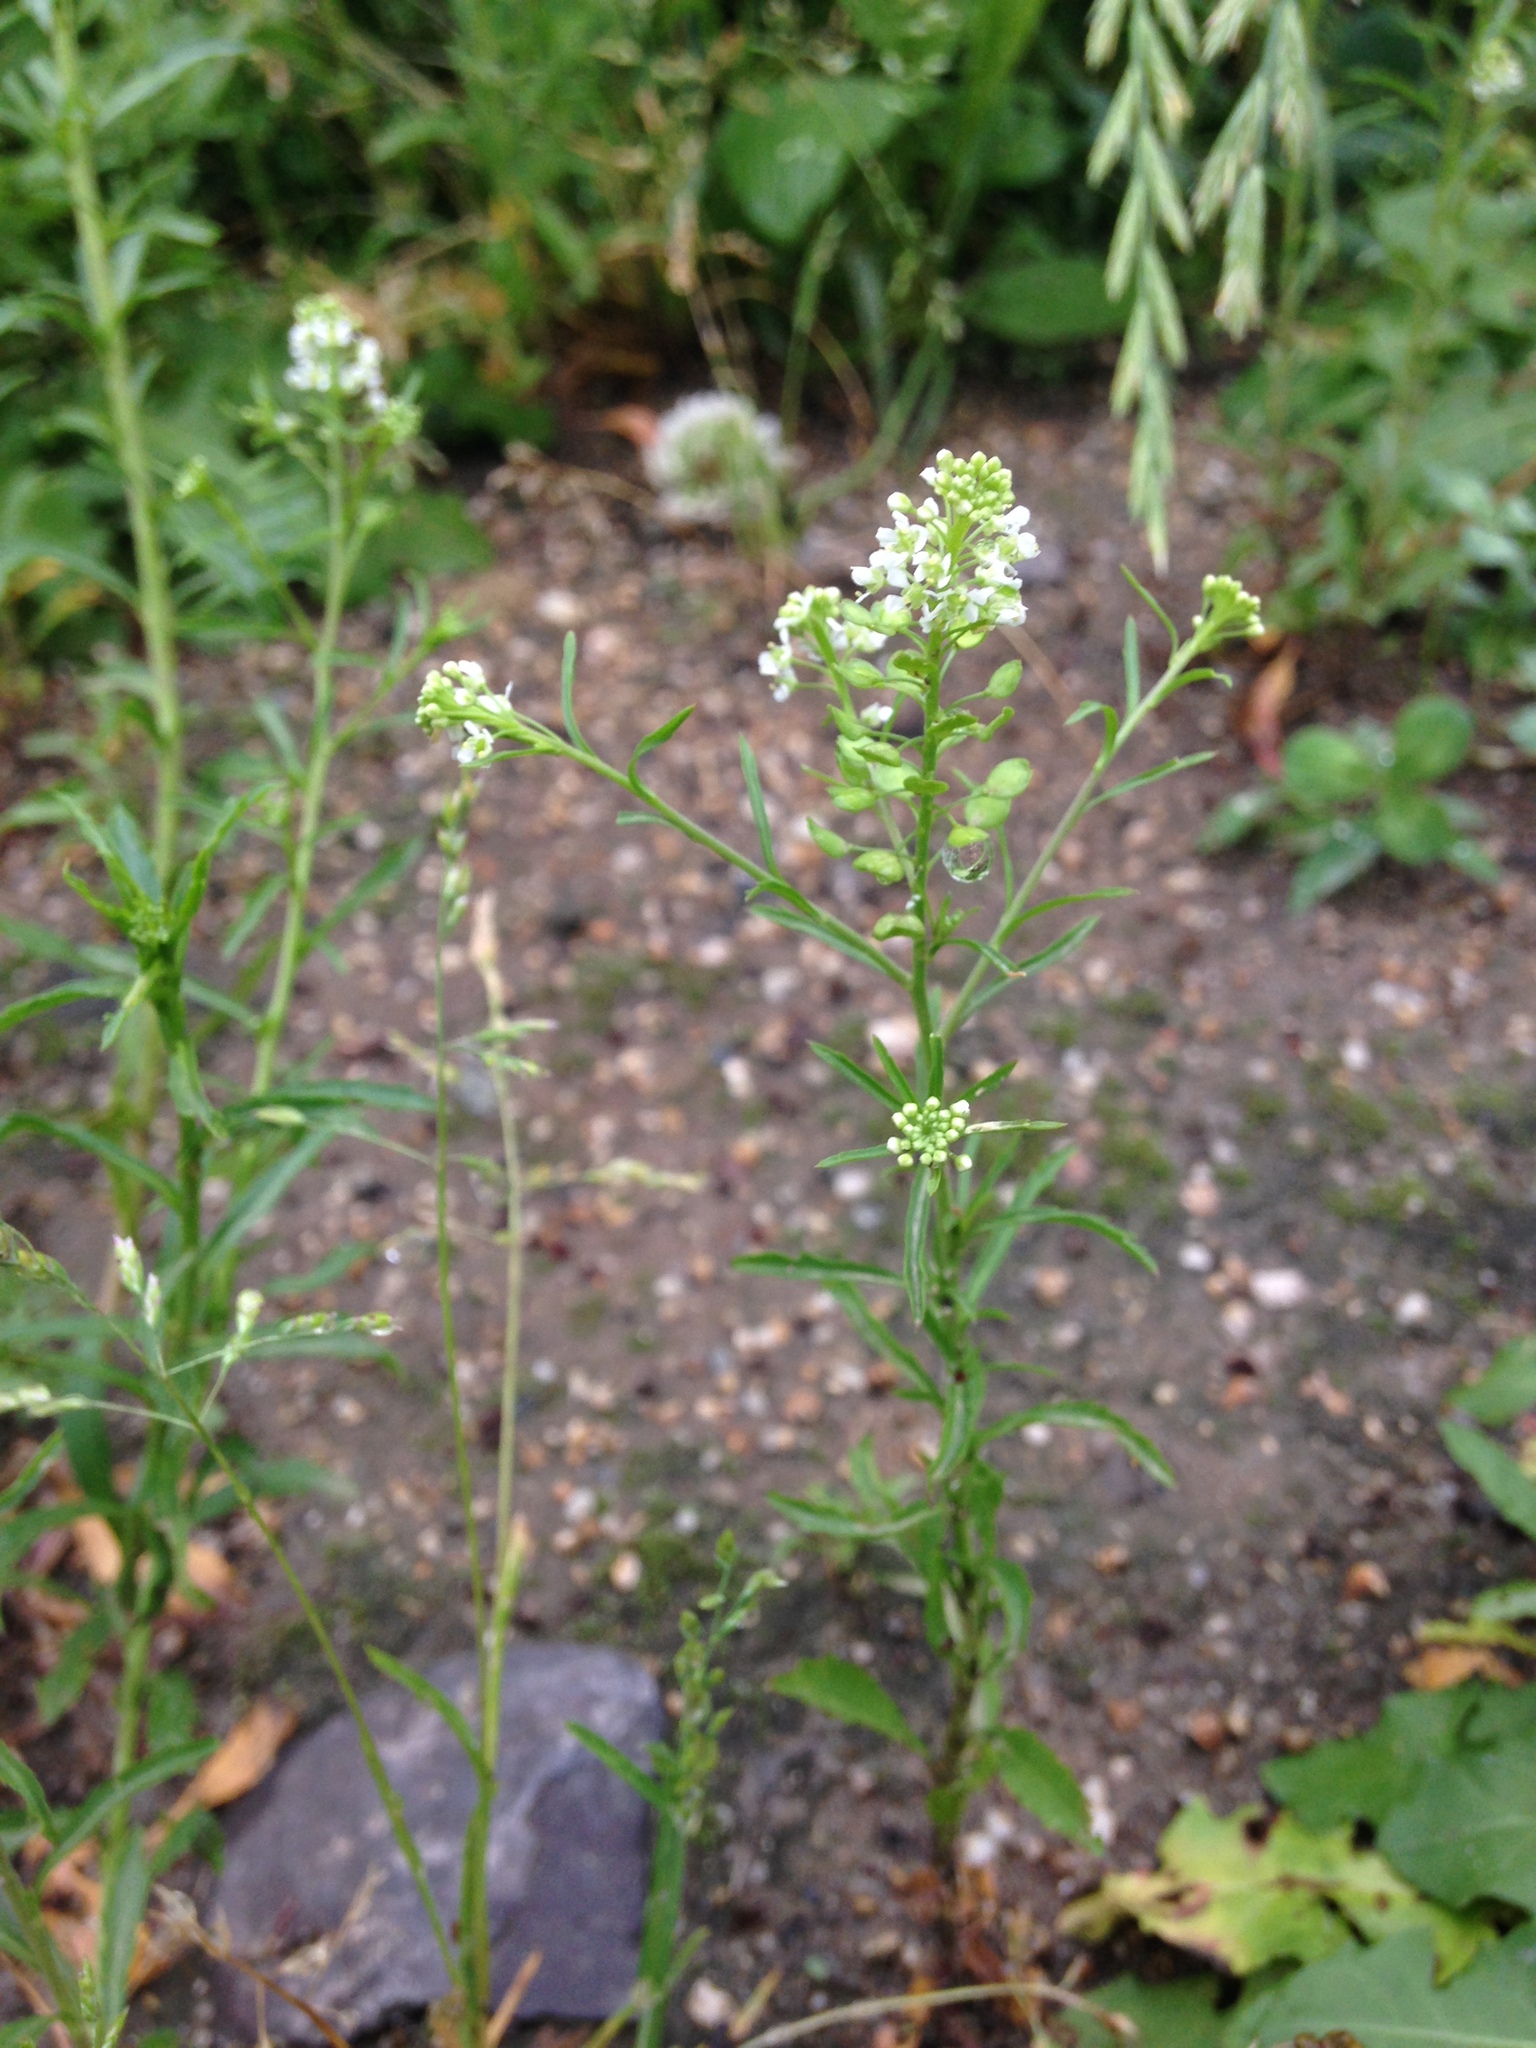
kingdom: Plantae
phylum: Tracheophyta
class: Magnoliopsida
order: Brassicales
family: Brassicaceae
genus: Lepidium
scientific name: Lepidium virginicum
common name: Least pepperwort
